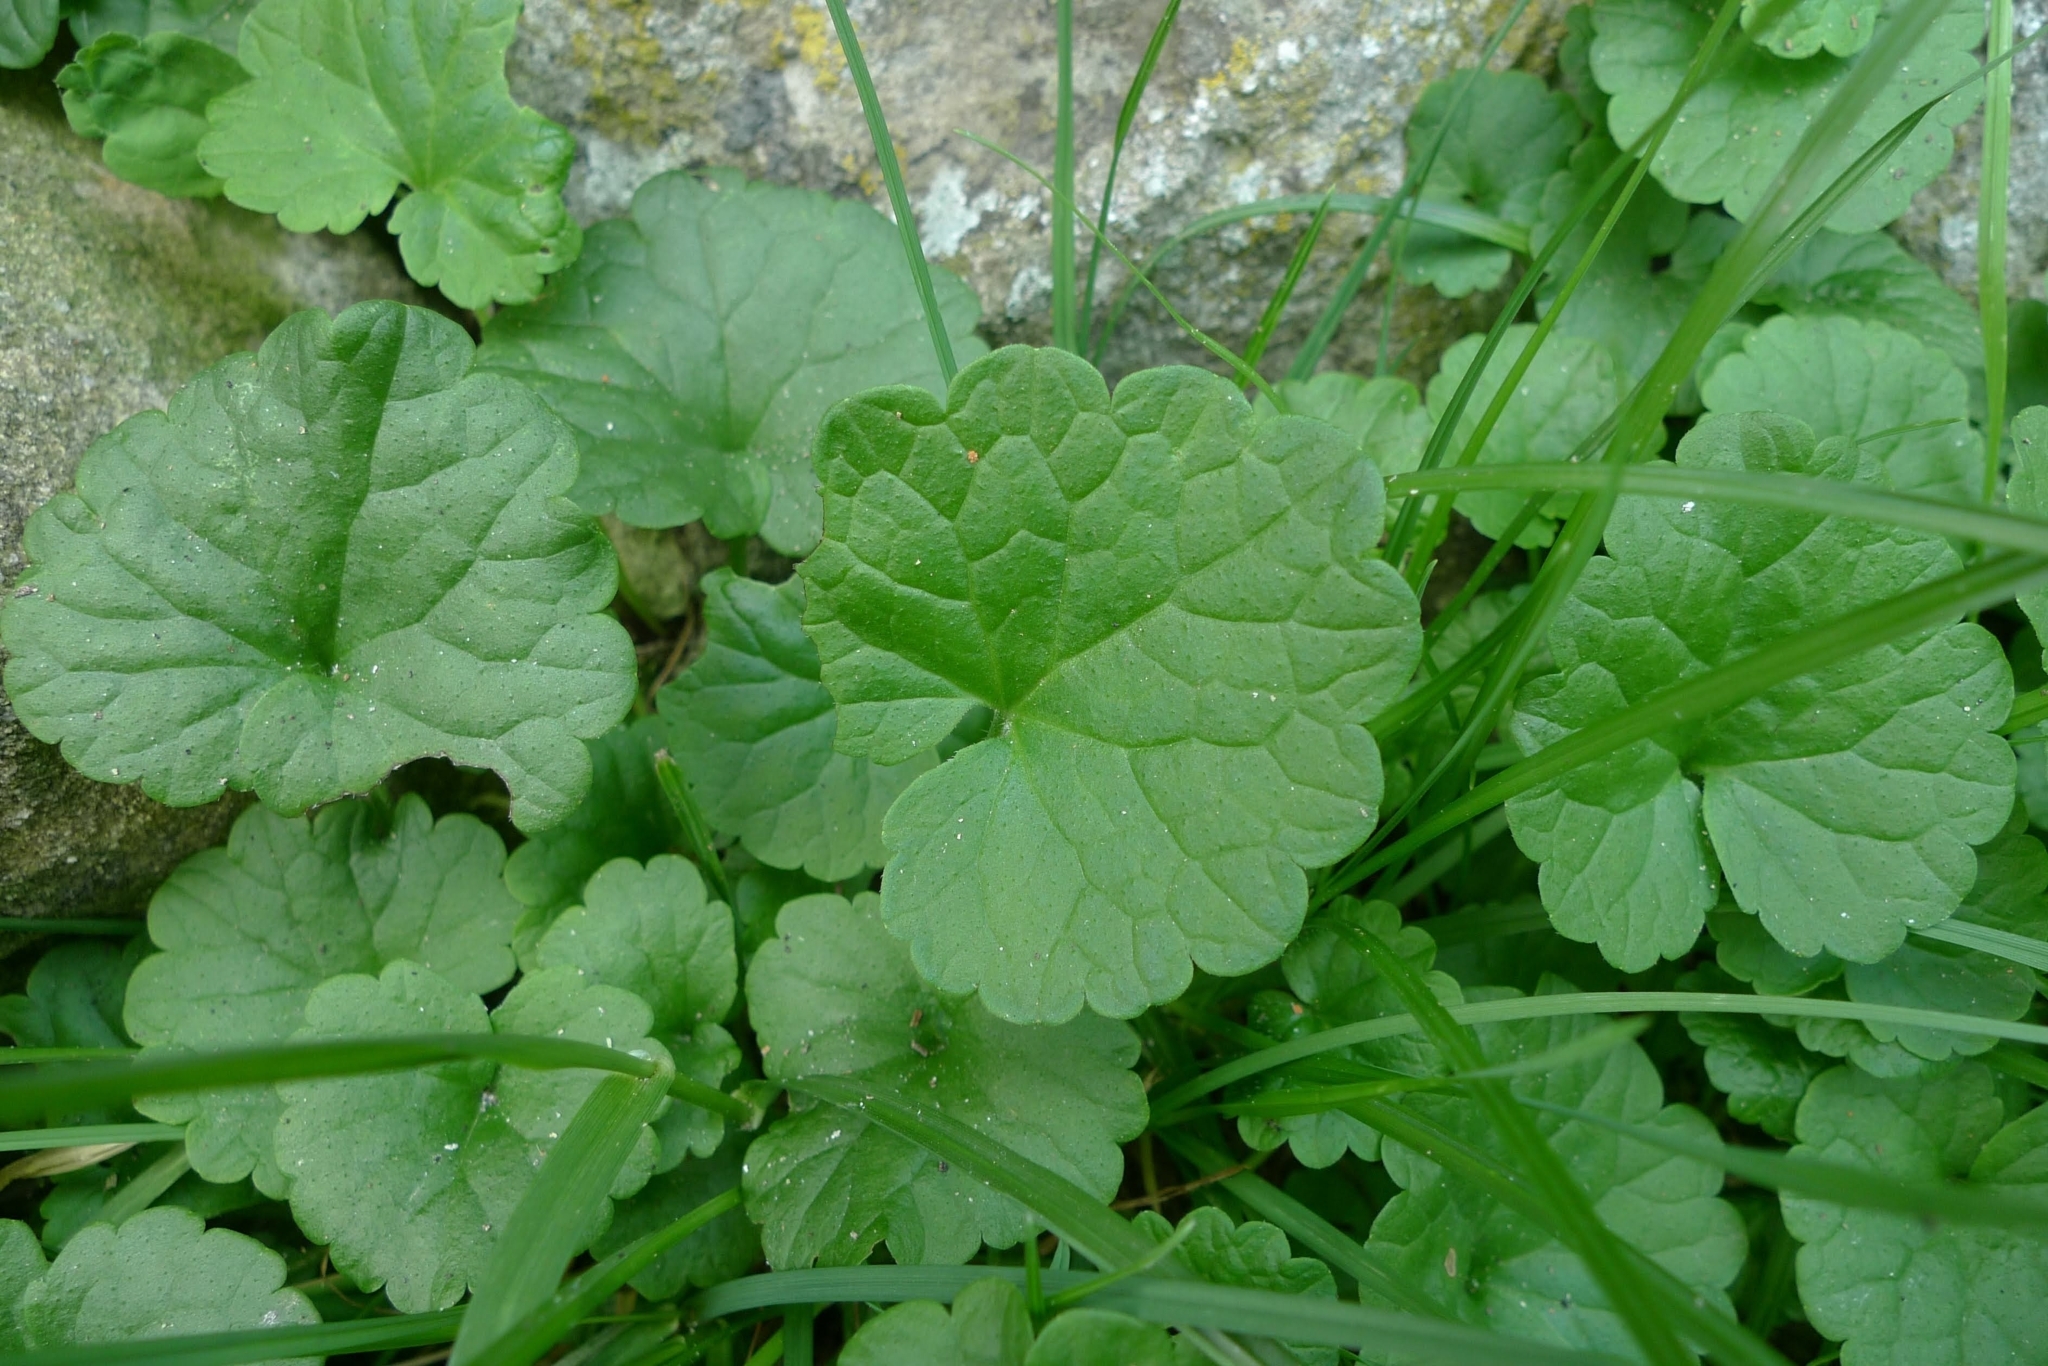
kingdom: Plantae
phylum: Tracheophyta
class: Magnoliopsida
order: Lamiales
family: Lamiaceae
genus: Glechoma
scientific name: Glechoma hederacea
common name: Ground ivy
